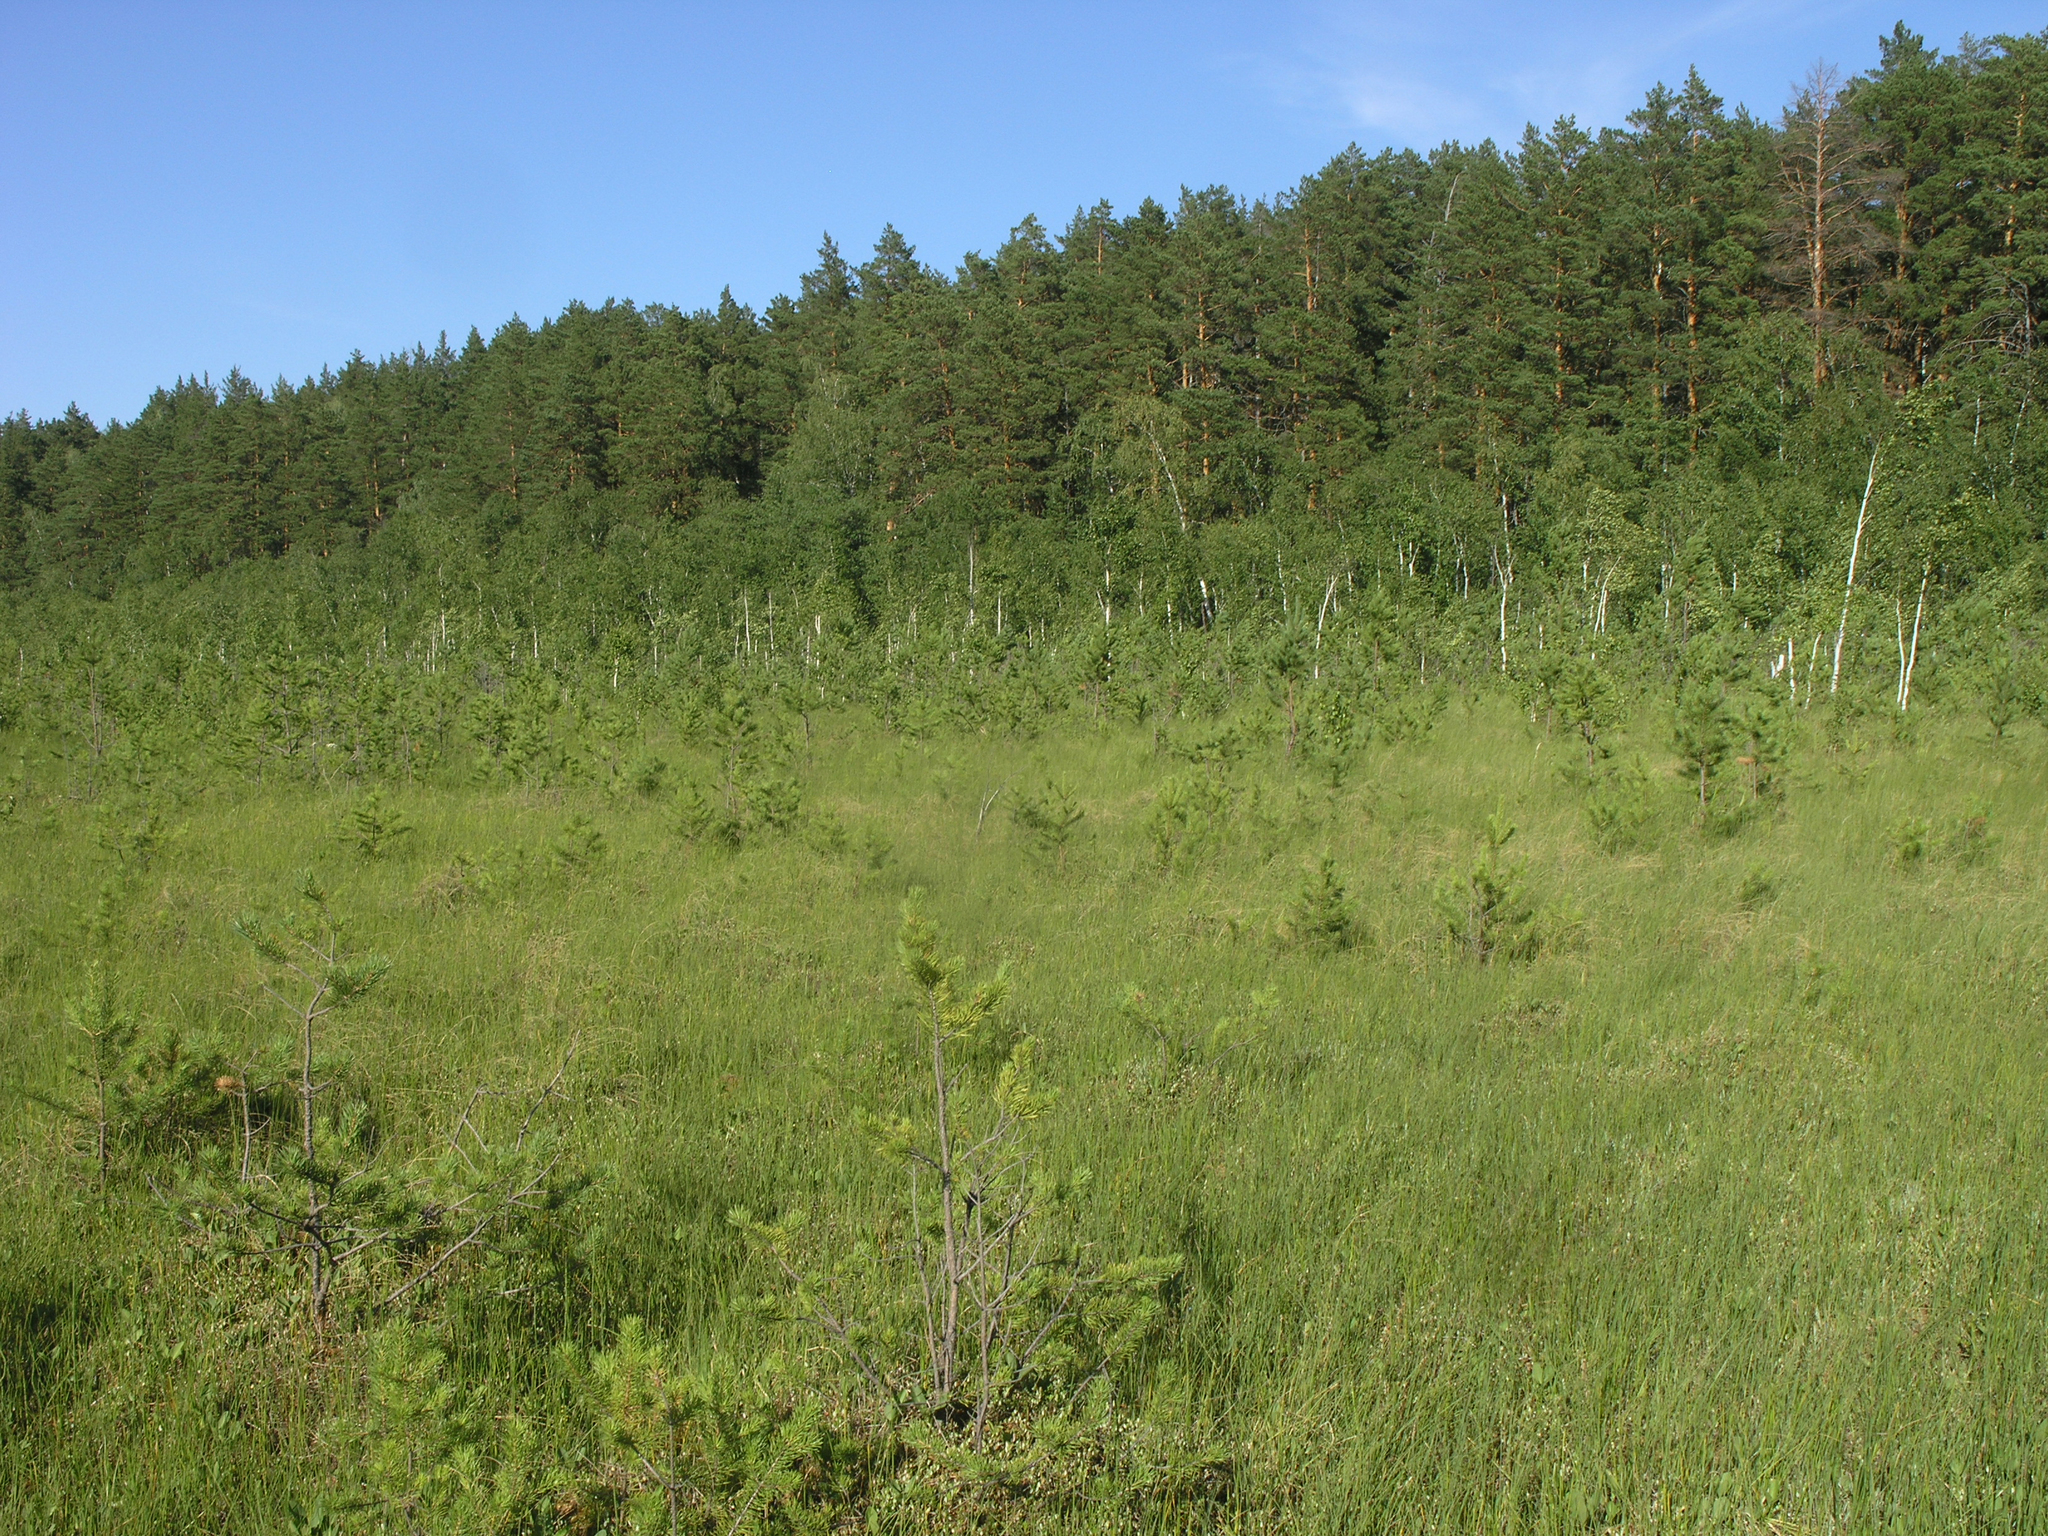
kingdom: Plantae
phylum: Tracheophyta
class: Magnoliopsida
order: Fagales
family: Betulaceae
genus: Betula
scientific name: Betula pubescens
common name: Downy birch
